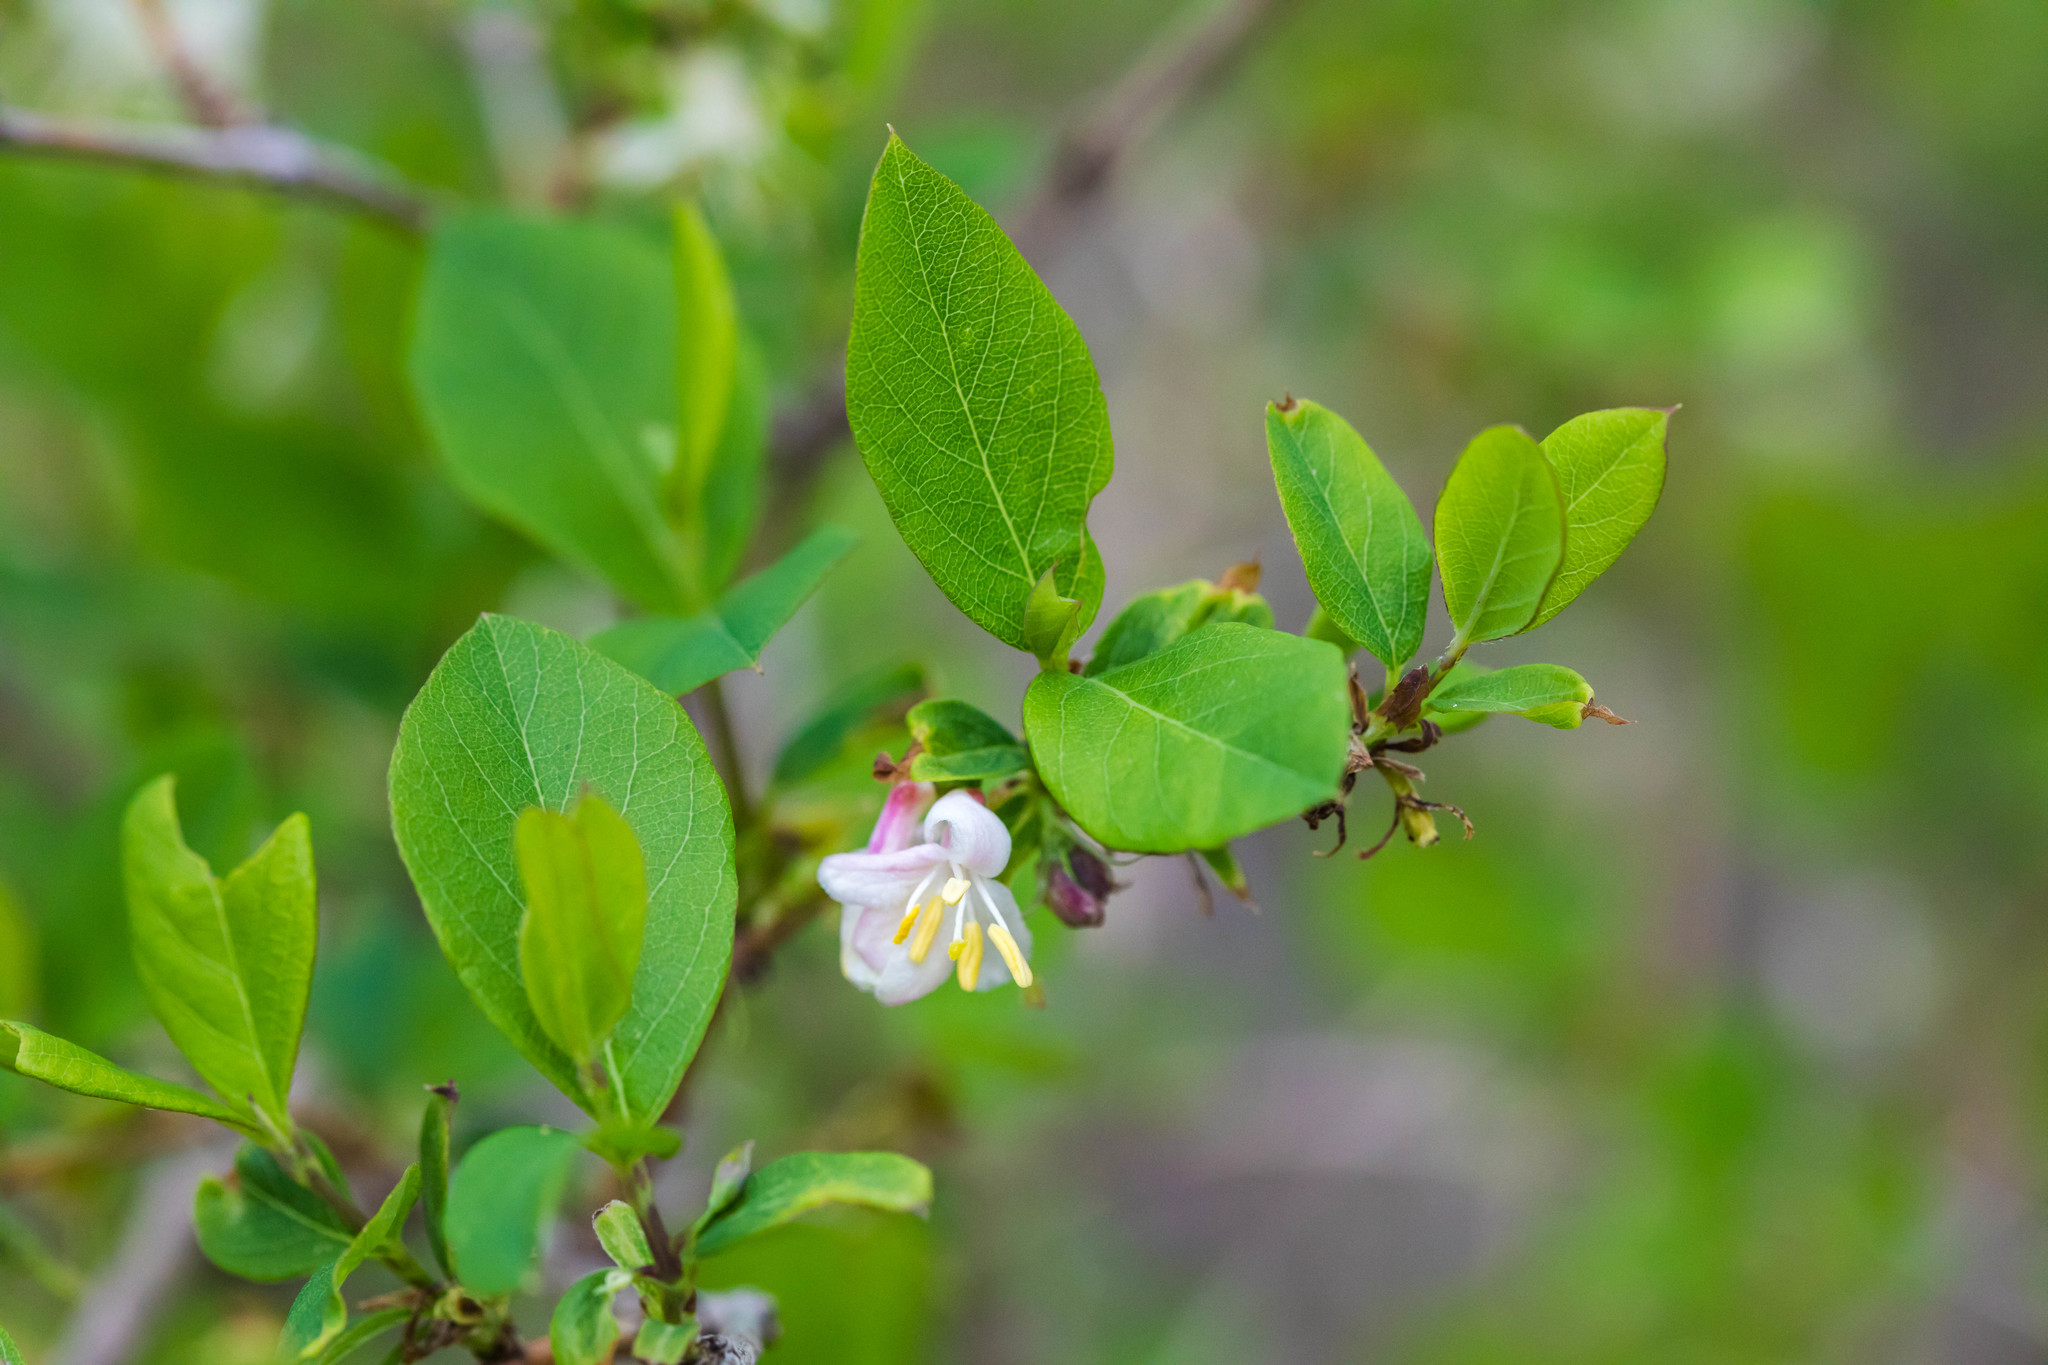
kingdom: Plantae
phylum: Tracheophyta
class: Magnoliopsida
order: Dipsacales
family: Caprifoliaceae
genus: Lonicera
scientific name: Lonicera fragrantissima
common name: Fragrant honeysuckle
